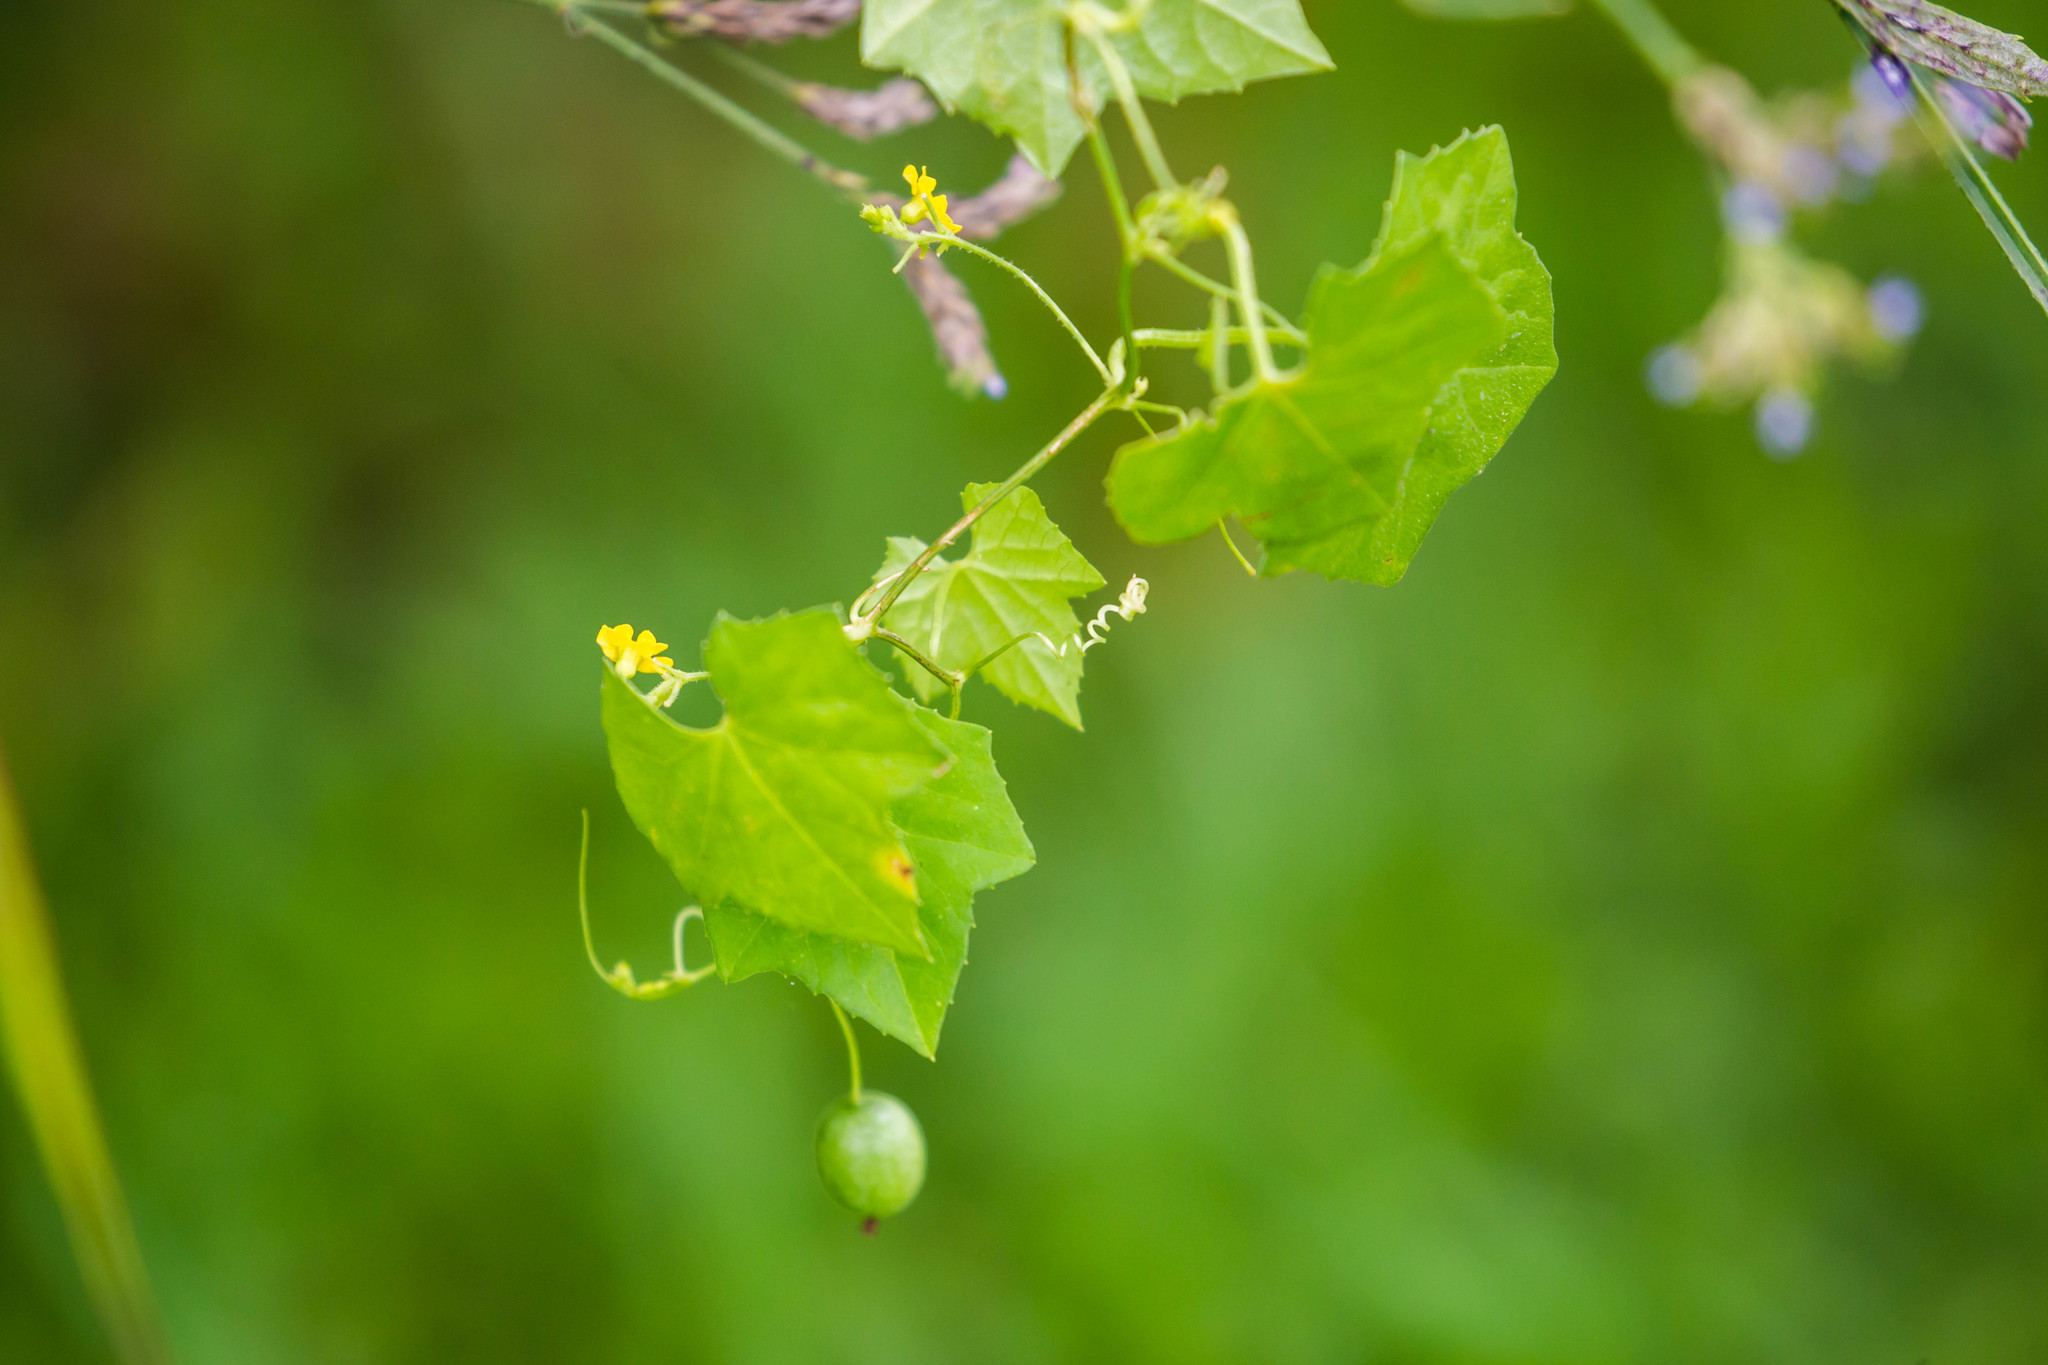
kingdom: Plantae
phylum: Tracheophyta
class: Magnoliopsida
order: Cucurbitales
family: Cucurbitaceae
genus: Melothria
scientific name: Melothria pendula
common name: Creeping-cucumber
